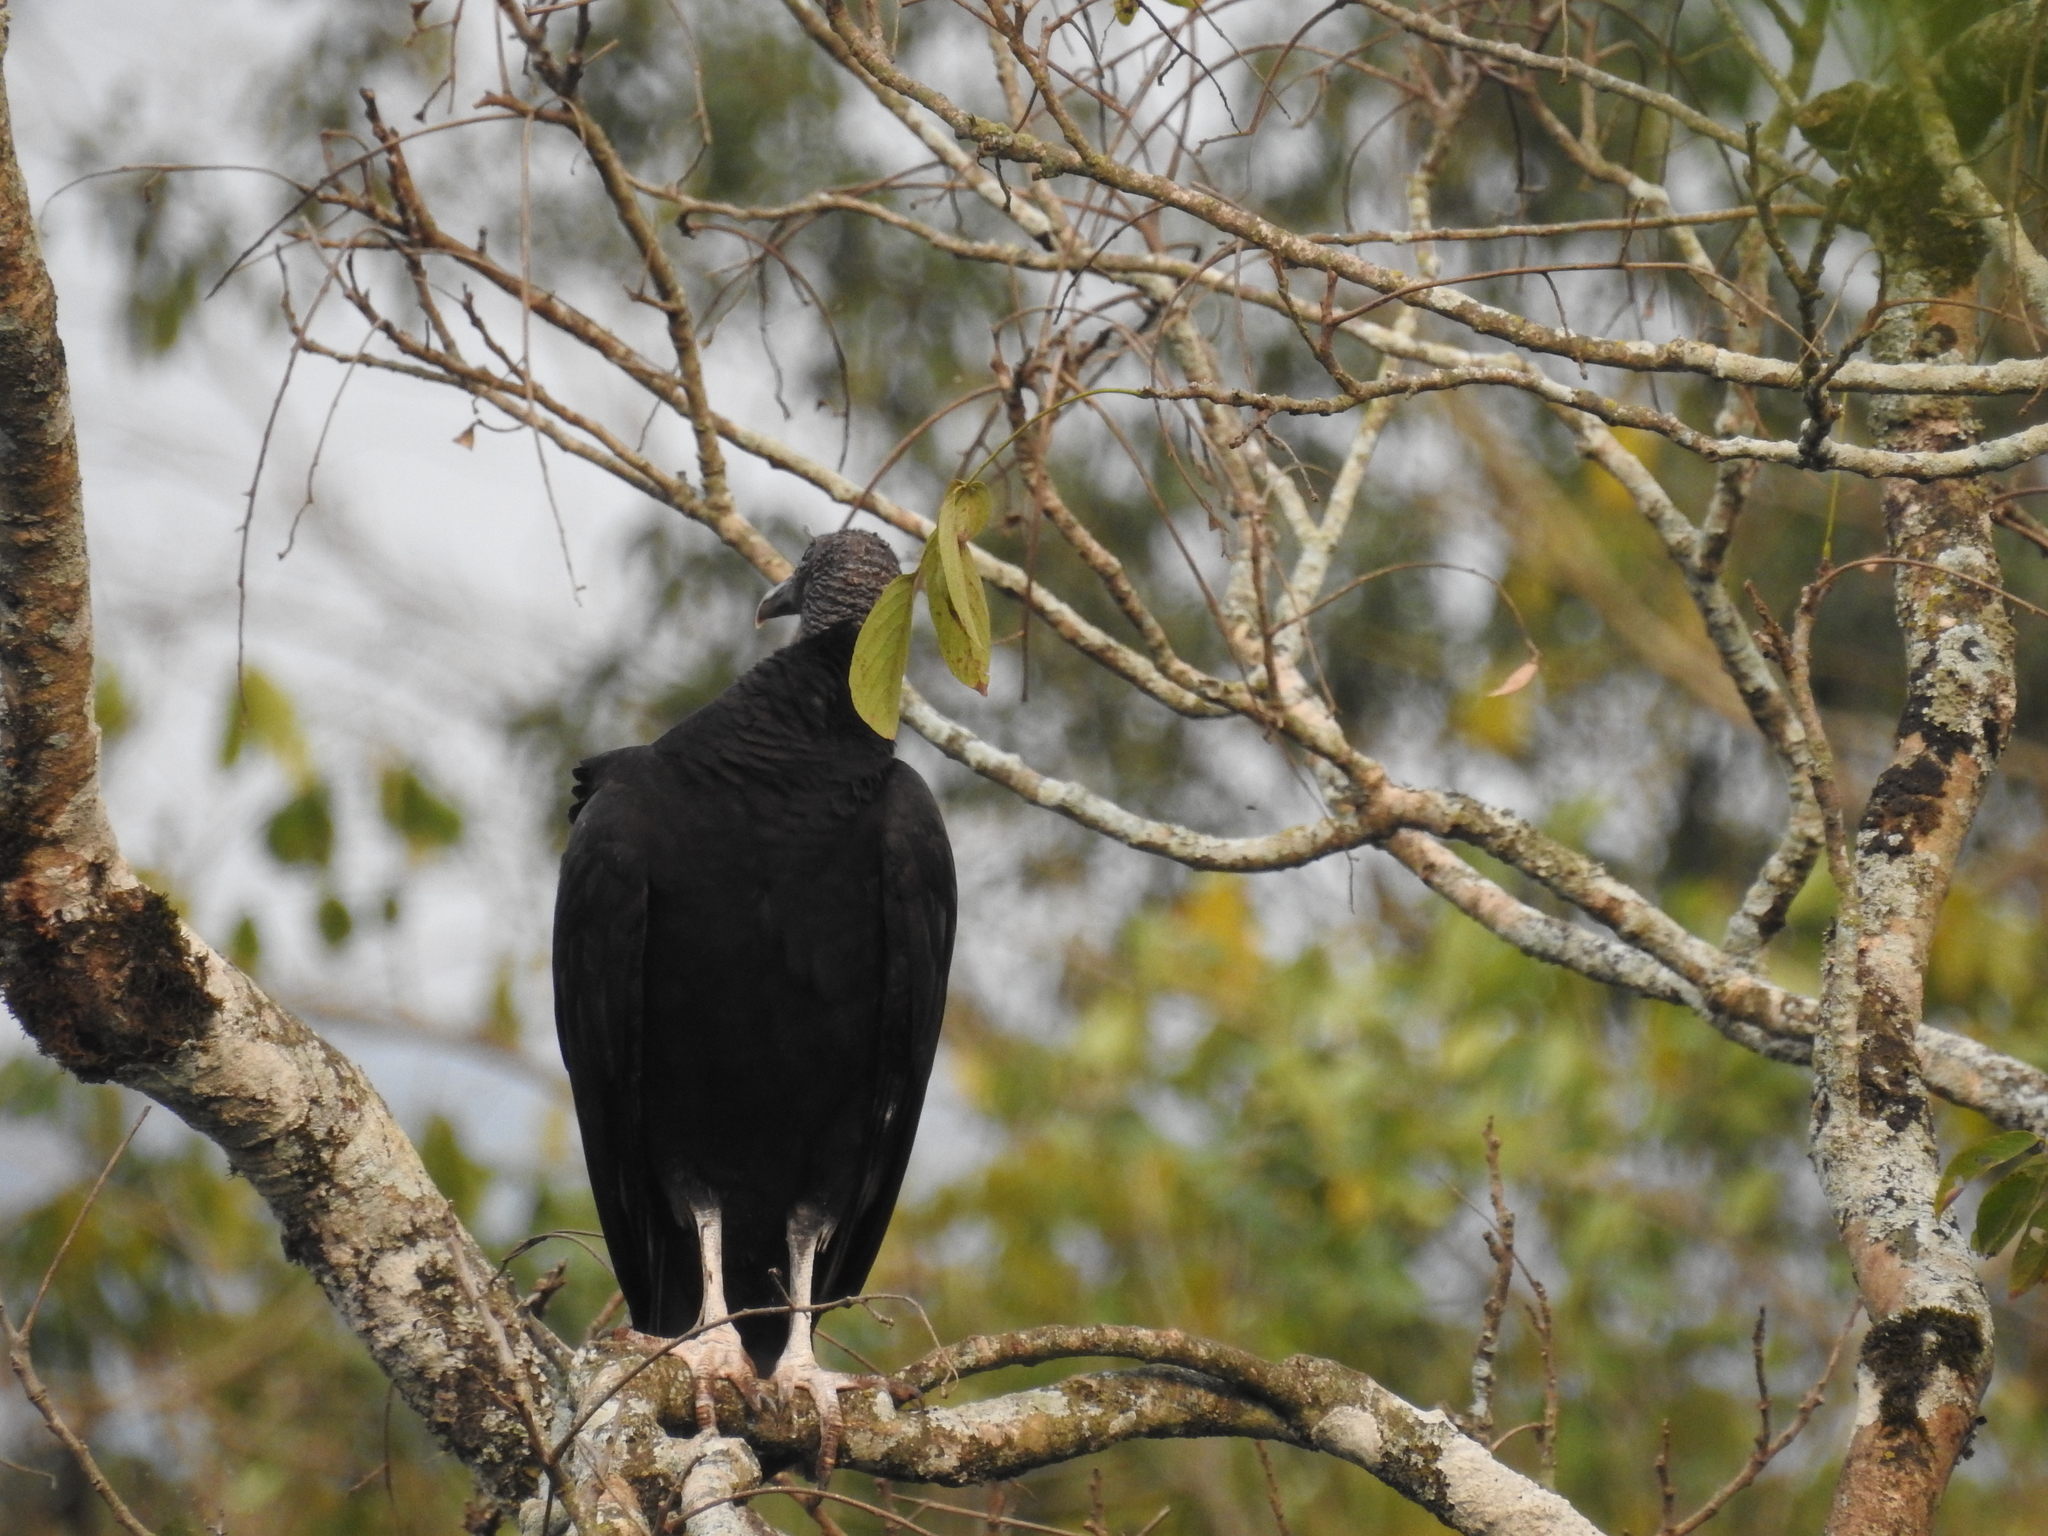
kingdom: Animalia
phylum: Chordata
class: Aves
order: Accipitriformes
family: Cathartidae
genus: Coragyps
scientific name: Coragyps atratus
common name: Black vulture
